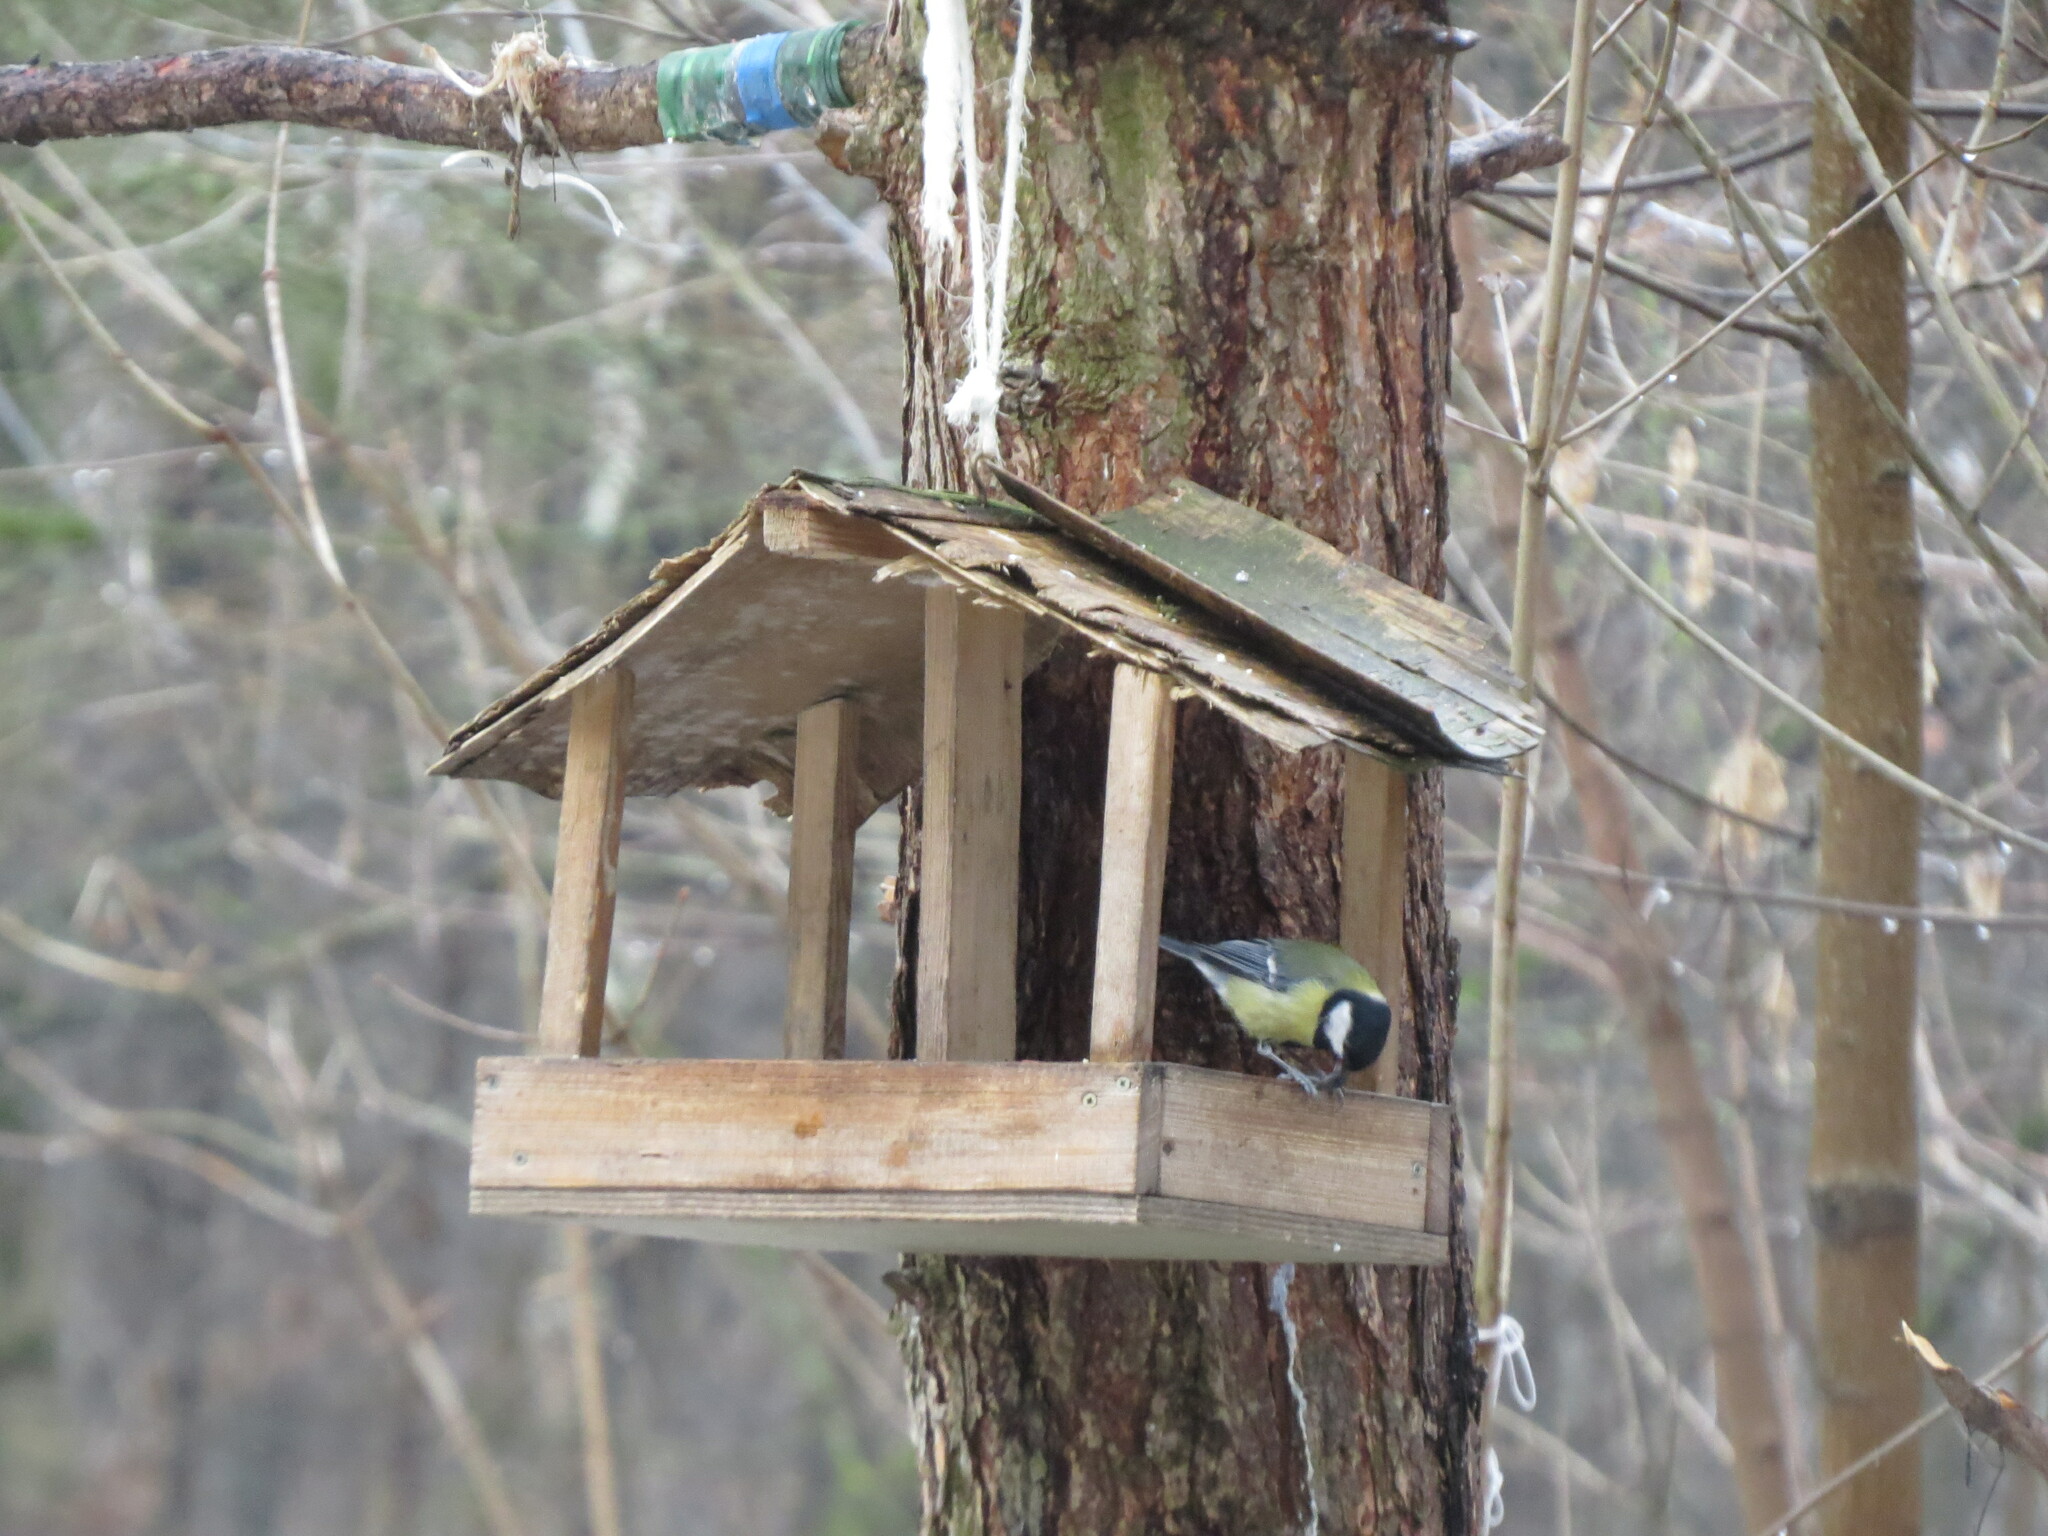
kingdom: Animalia
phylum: Chordata
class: Aves
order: Passeriformes
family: Paridae
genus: Parus
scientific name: Parus major
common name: Great tit
